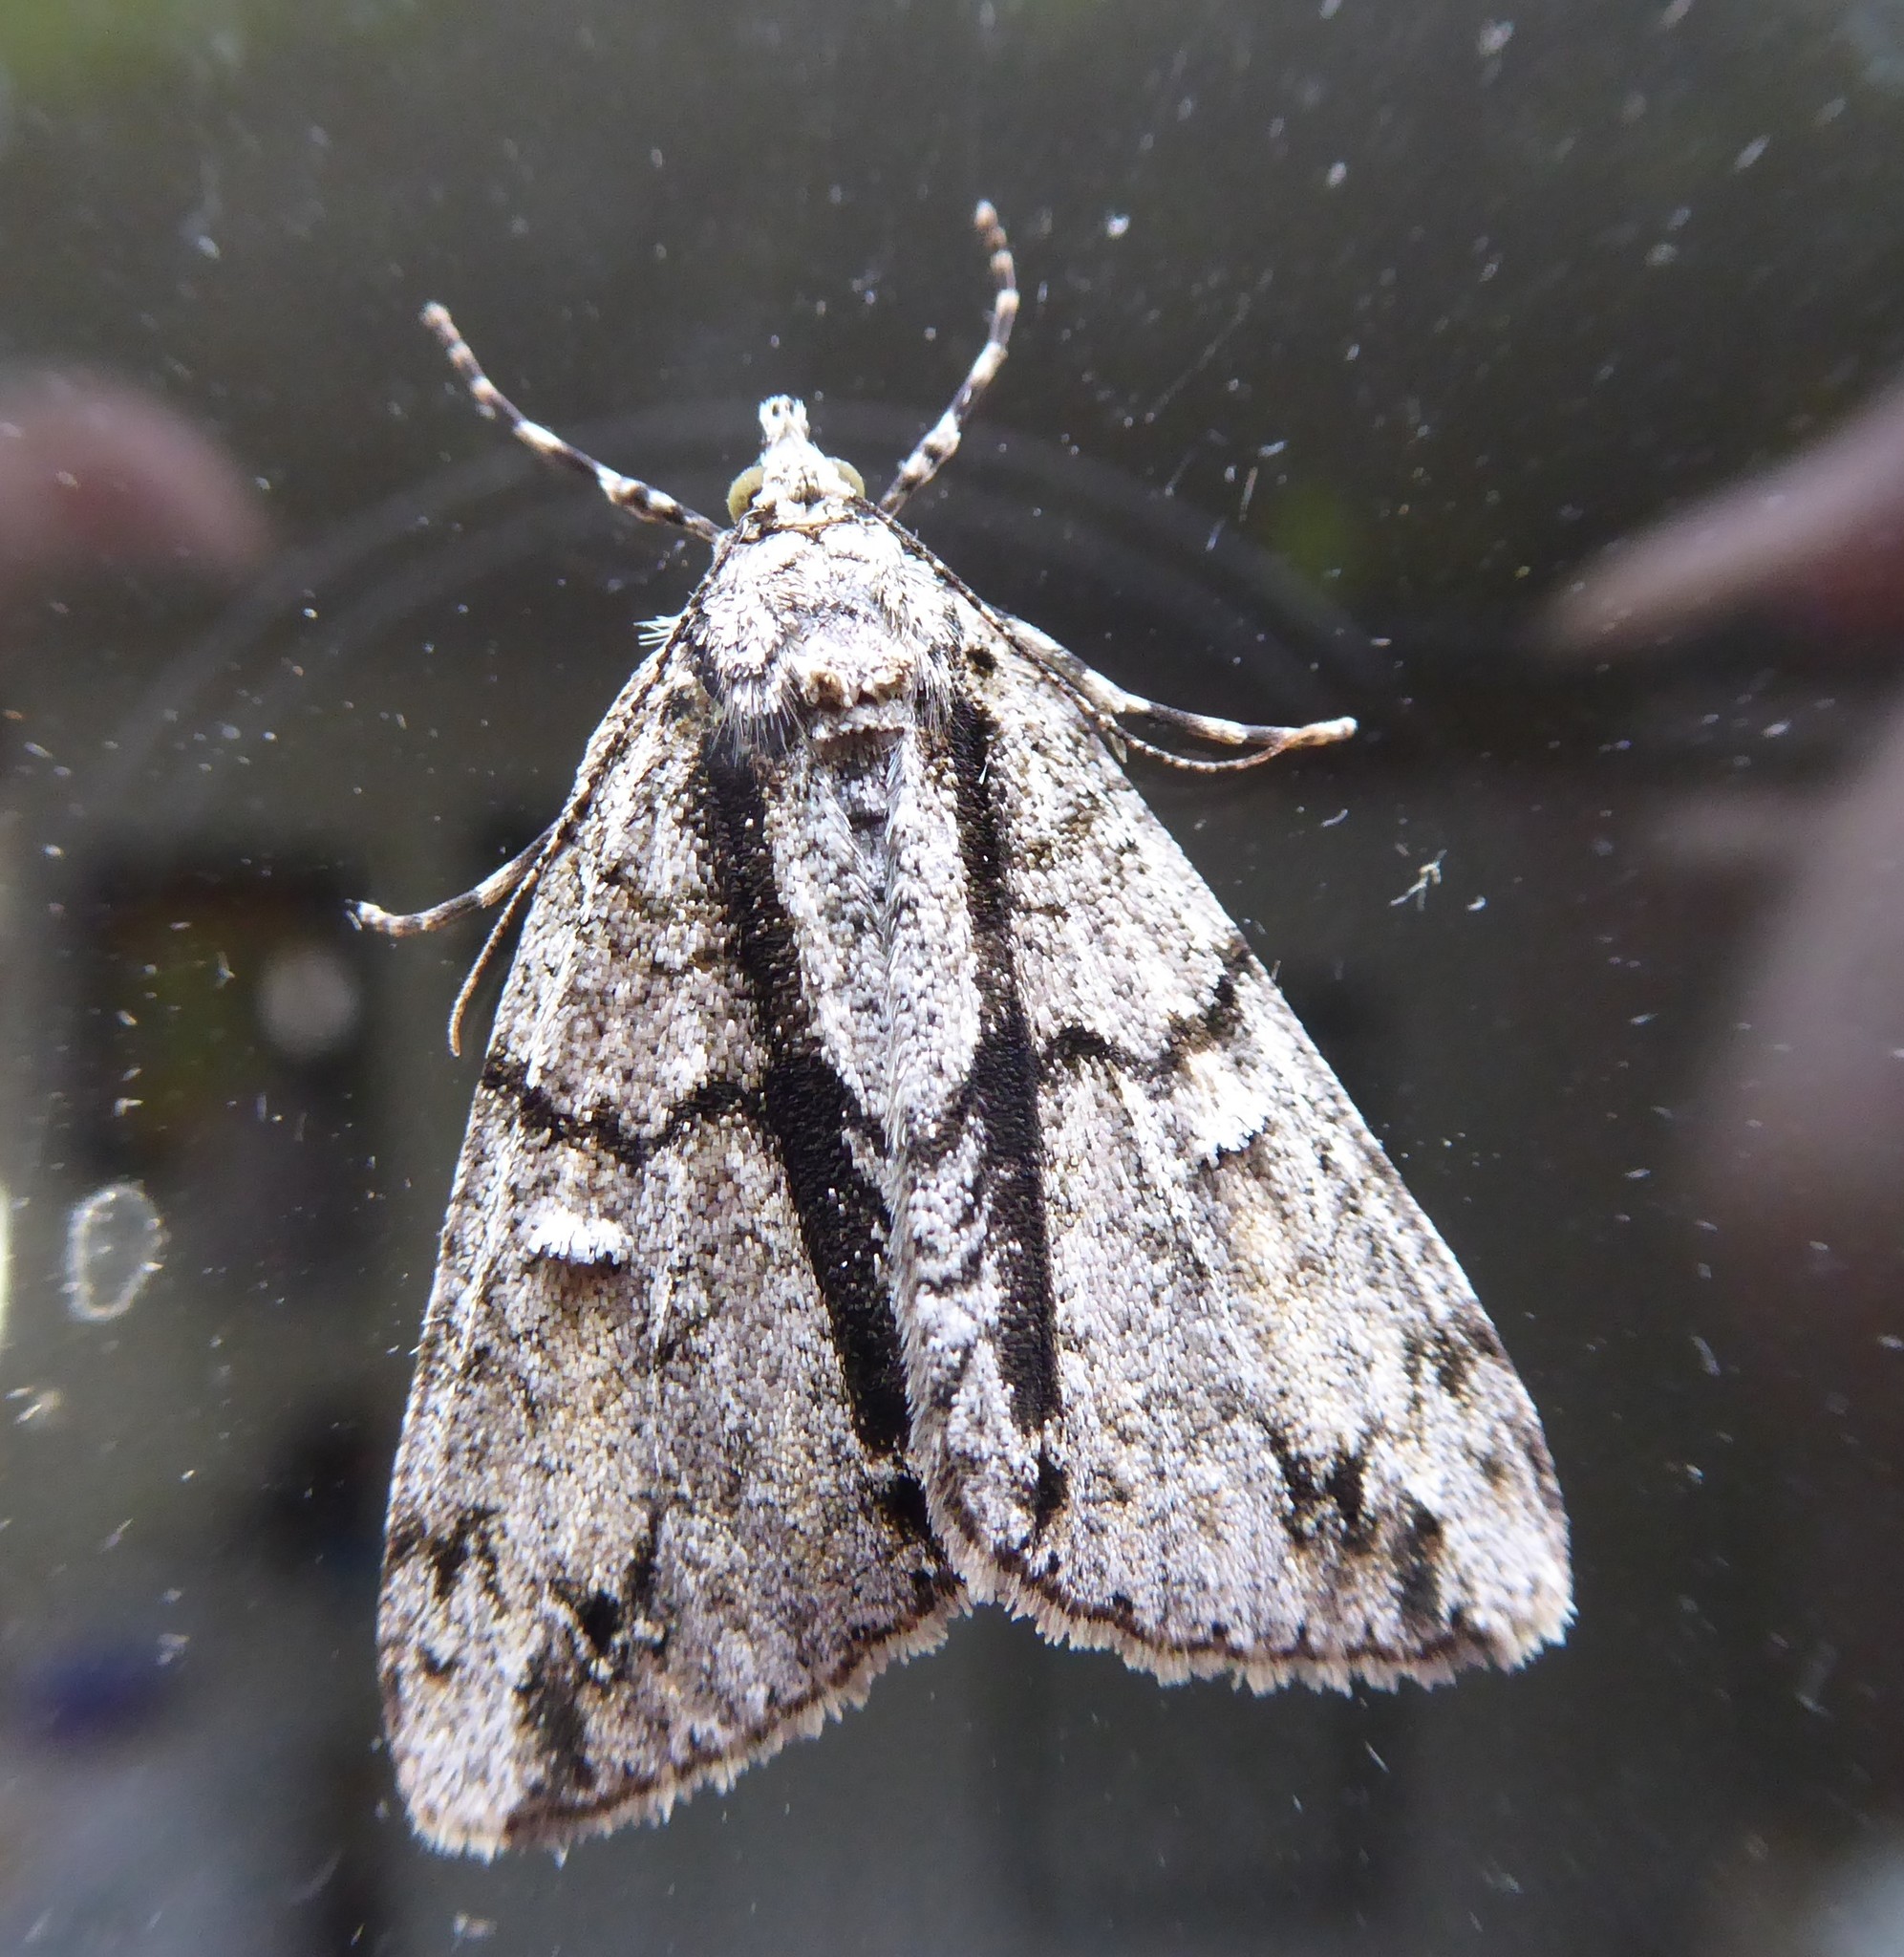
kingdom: Animalia
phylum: Arthropoda
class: Insecta
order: Lepidoptera
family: Geometridae
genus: Pseudocoremia
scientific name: Pseudocoremia suavis
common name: Common forest looper
